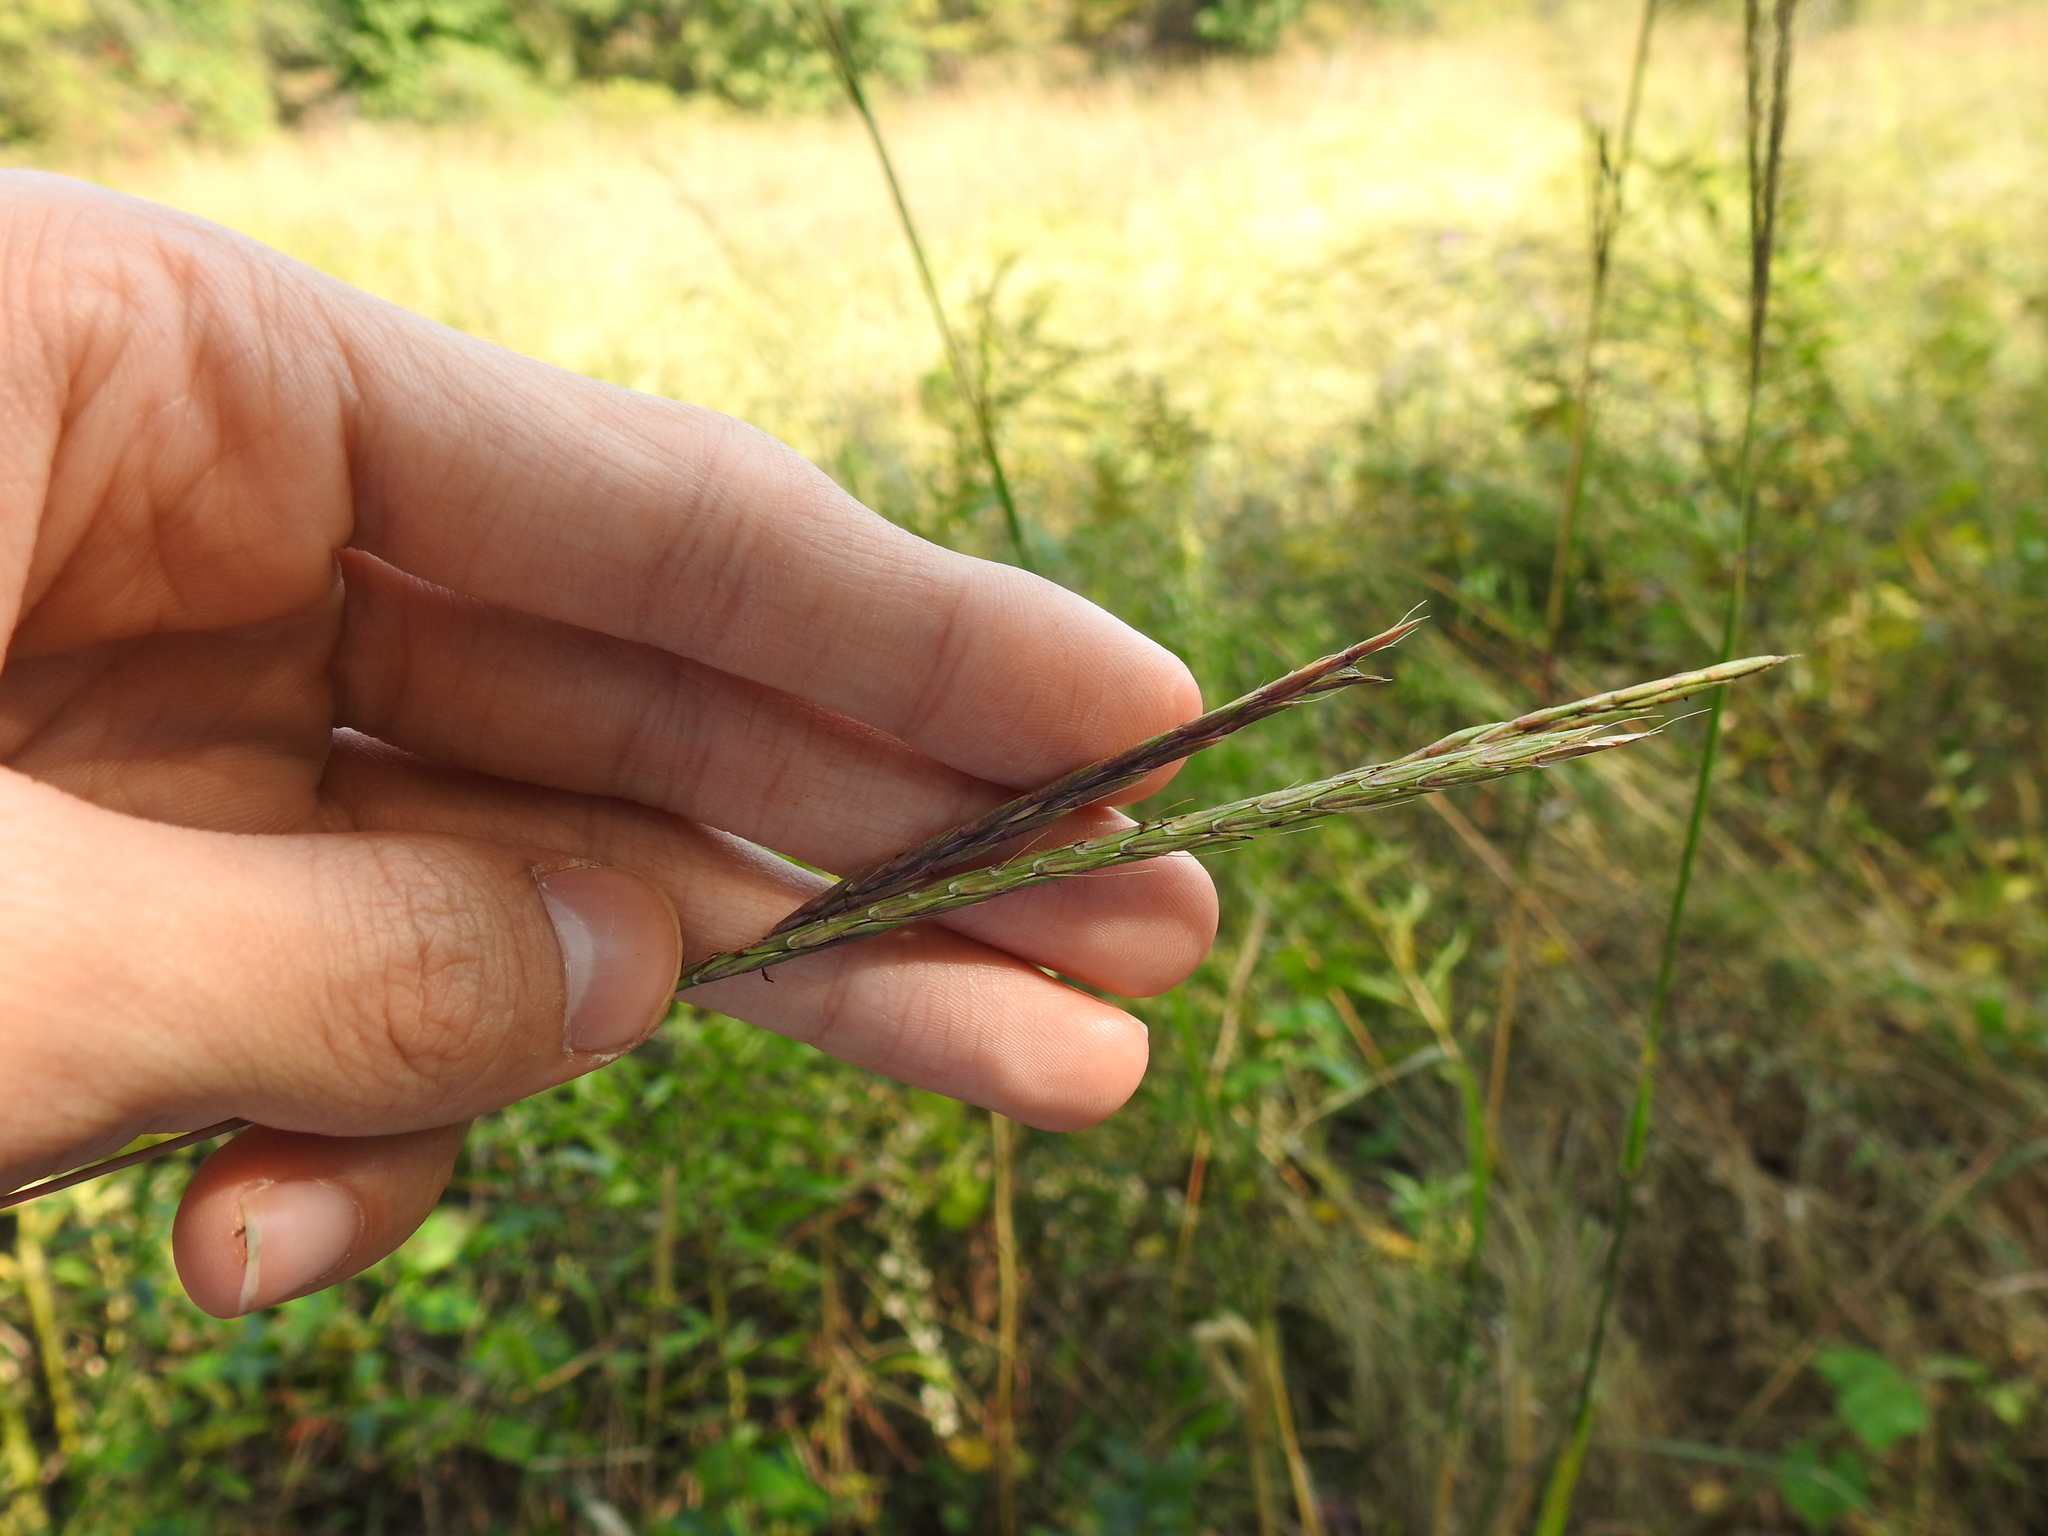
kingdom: Plantae
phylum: Tracheophyta
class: Liliopsida
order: Poales
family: Poaceae
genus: Andropogon
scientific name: Andropogon gerardi
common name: Big bluestem
